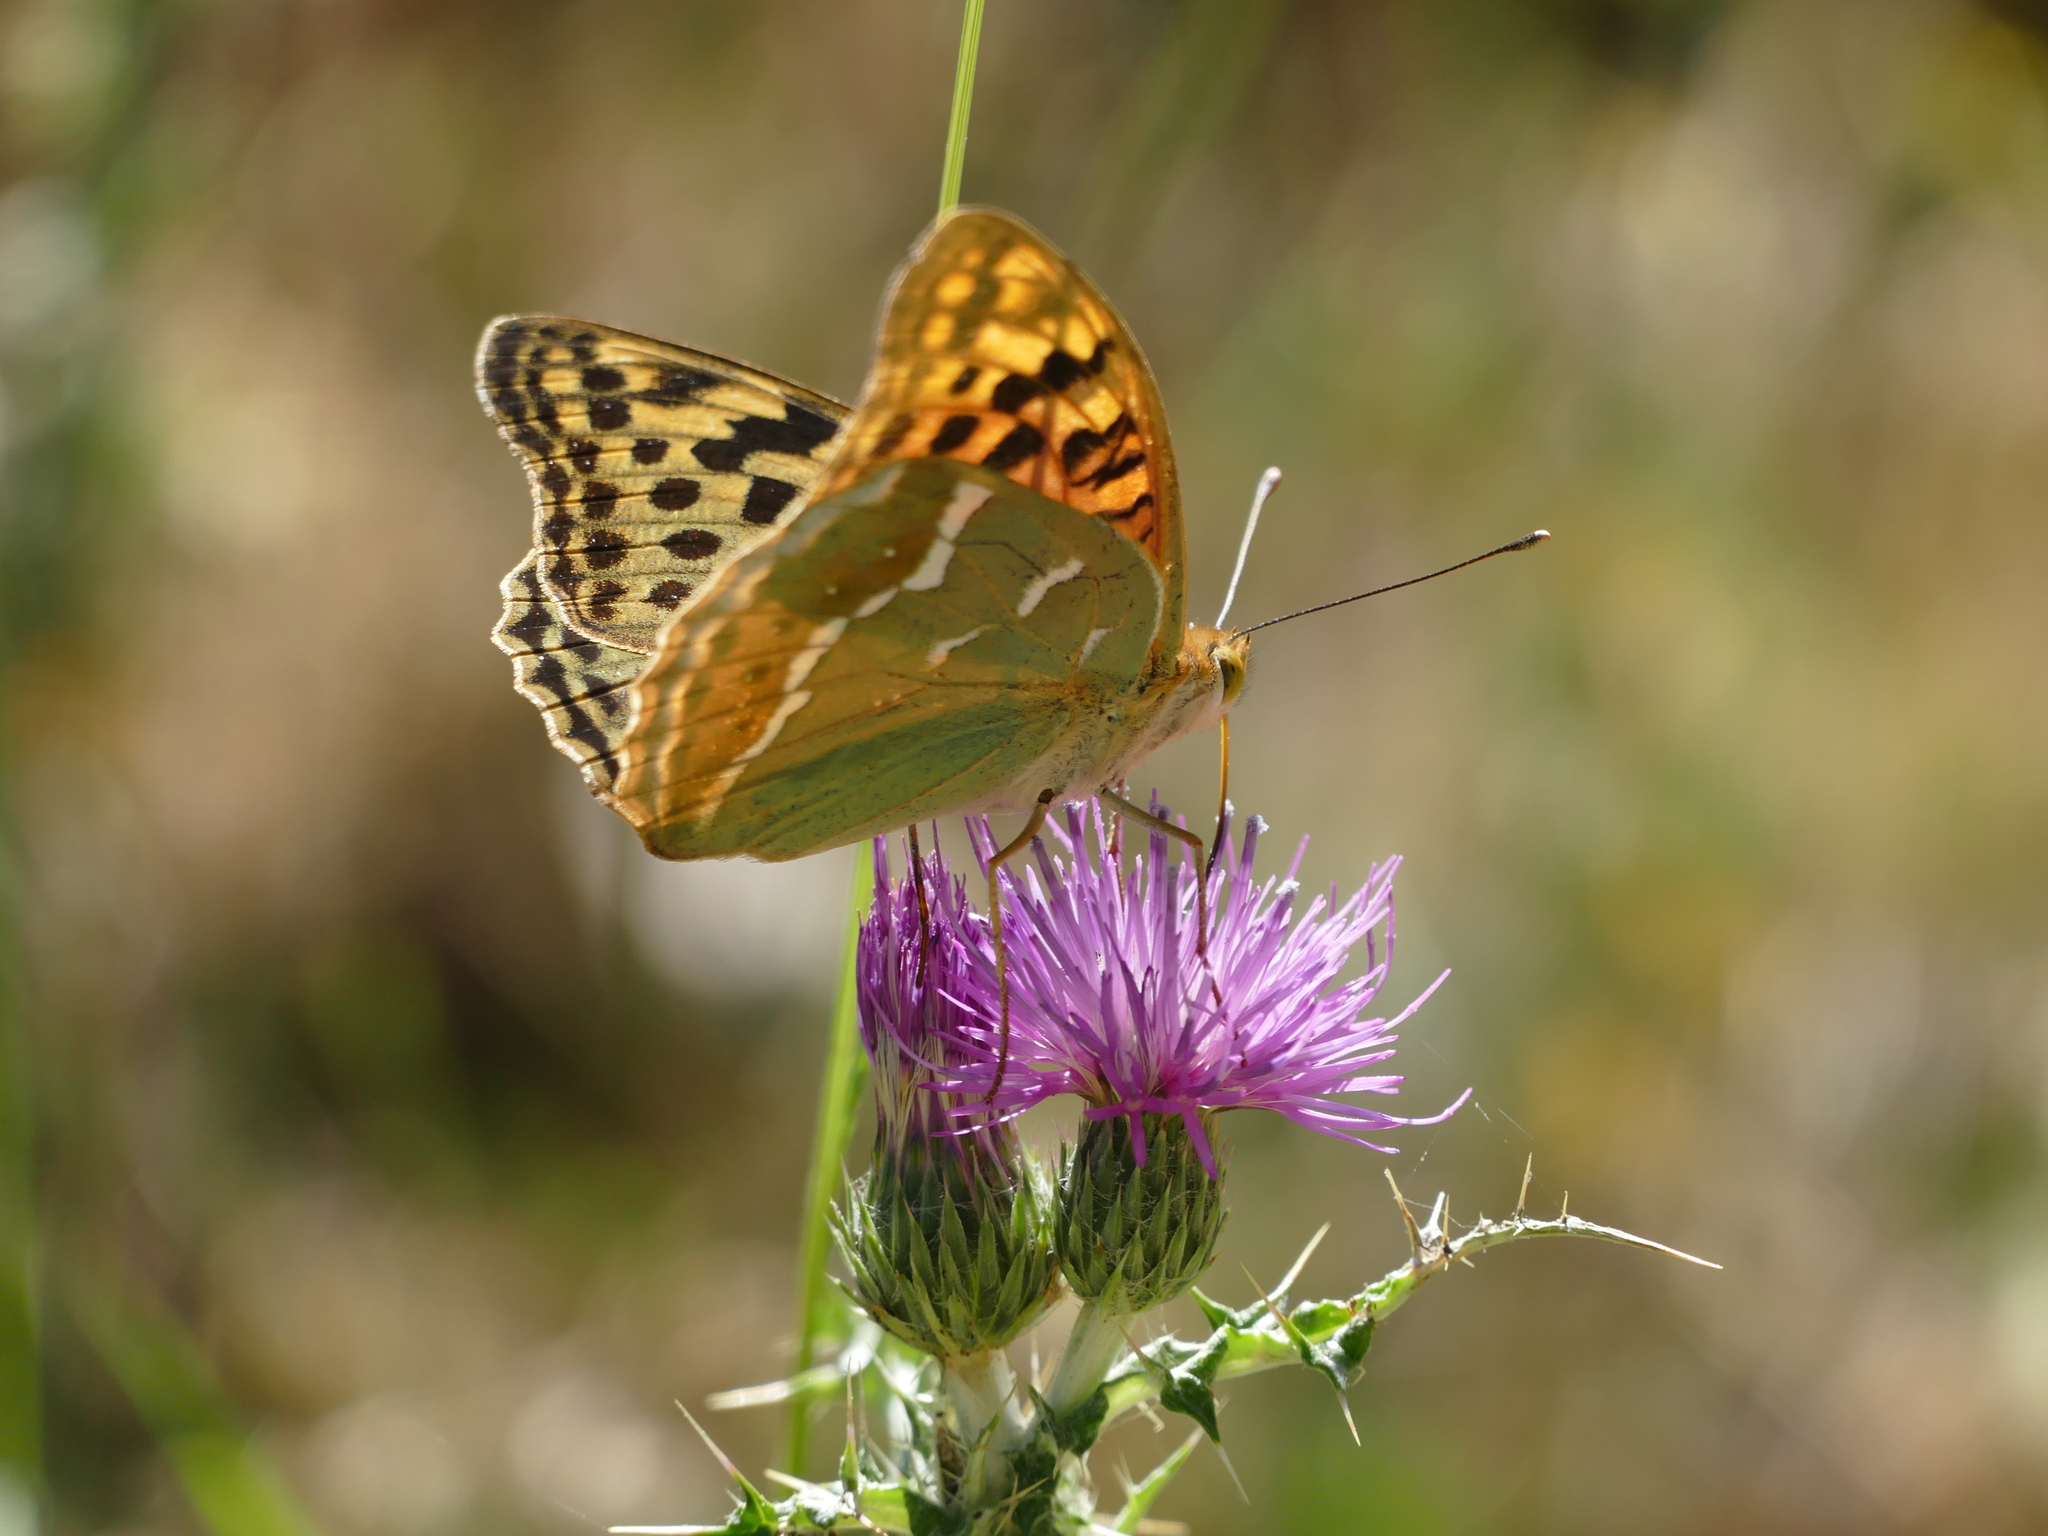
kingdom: Animalia
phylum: Arthropoda
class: Insecta
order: Lepidoptera
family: Nymphalidae
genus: Damora
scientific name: Damora pandora
